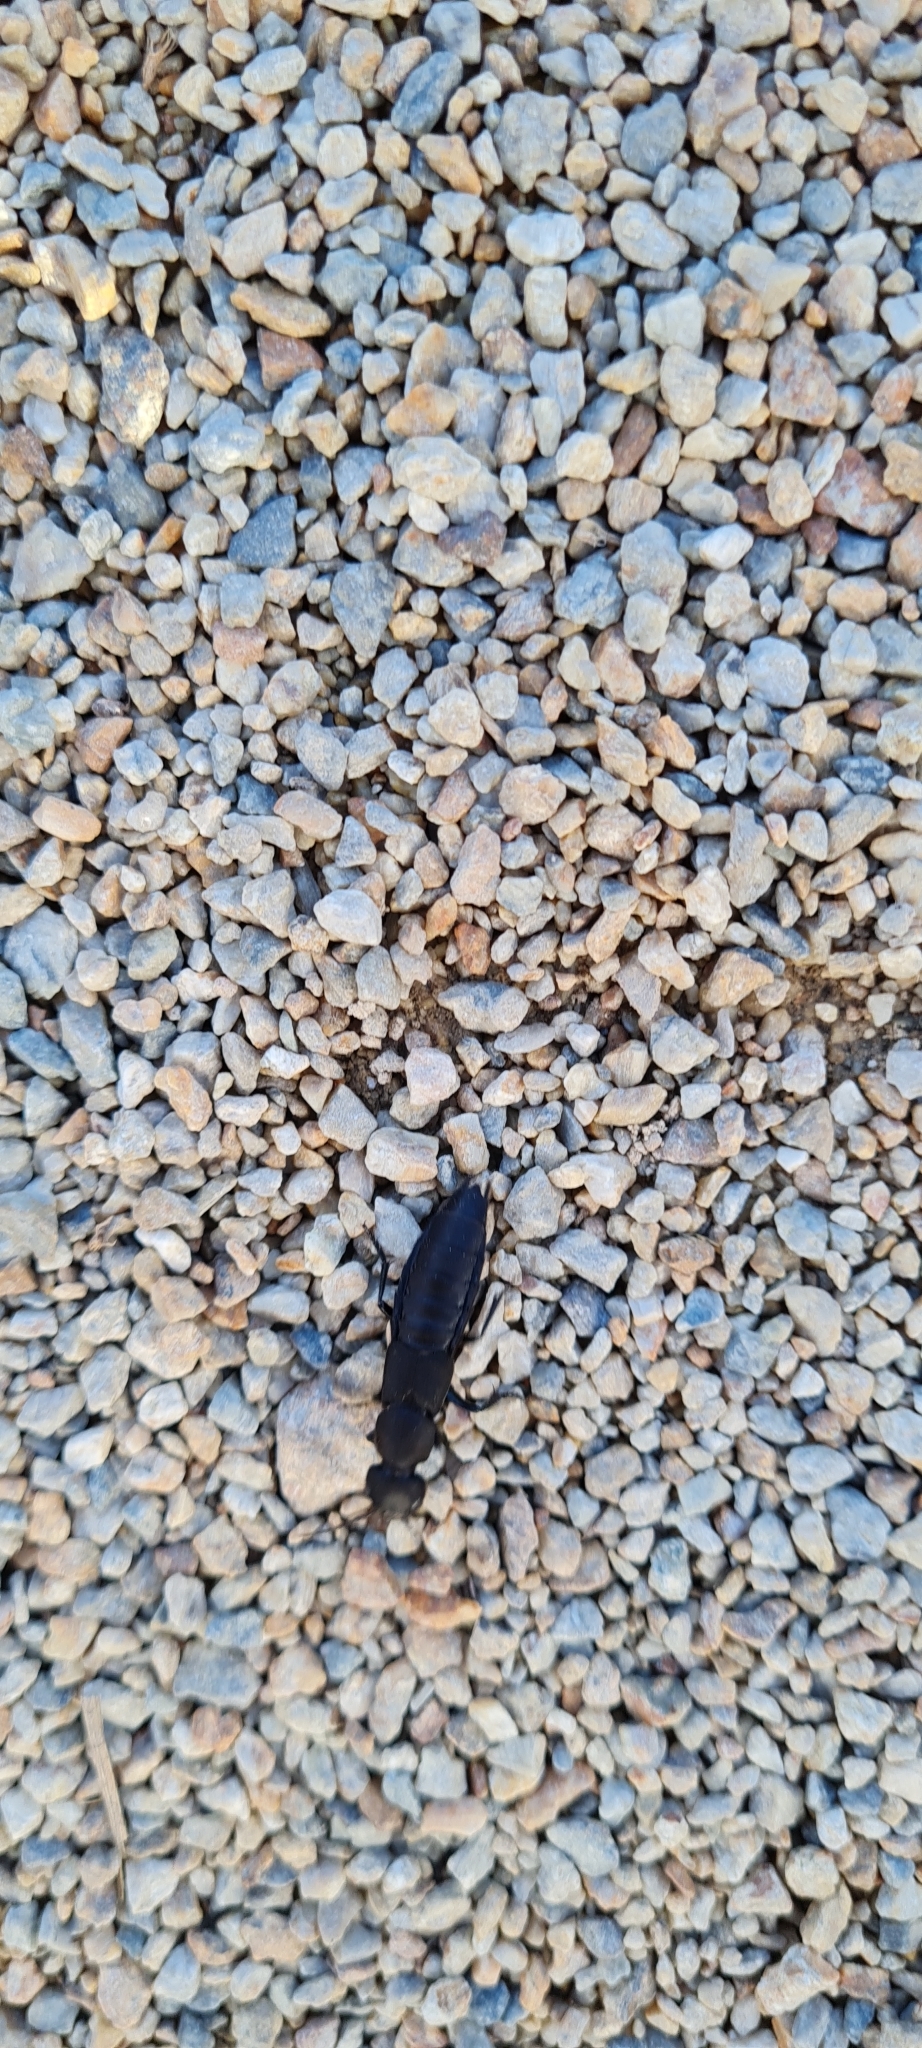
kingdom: Animalia
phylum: Arthropoda
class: Insecta
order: Coleoptera
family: Staphylinidae
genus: Ocypus
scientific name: Ocypus olens
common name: Devil's coach-horse
